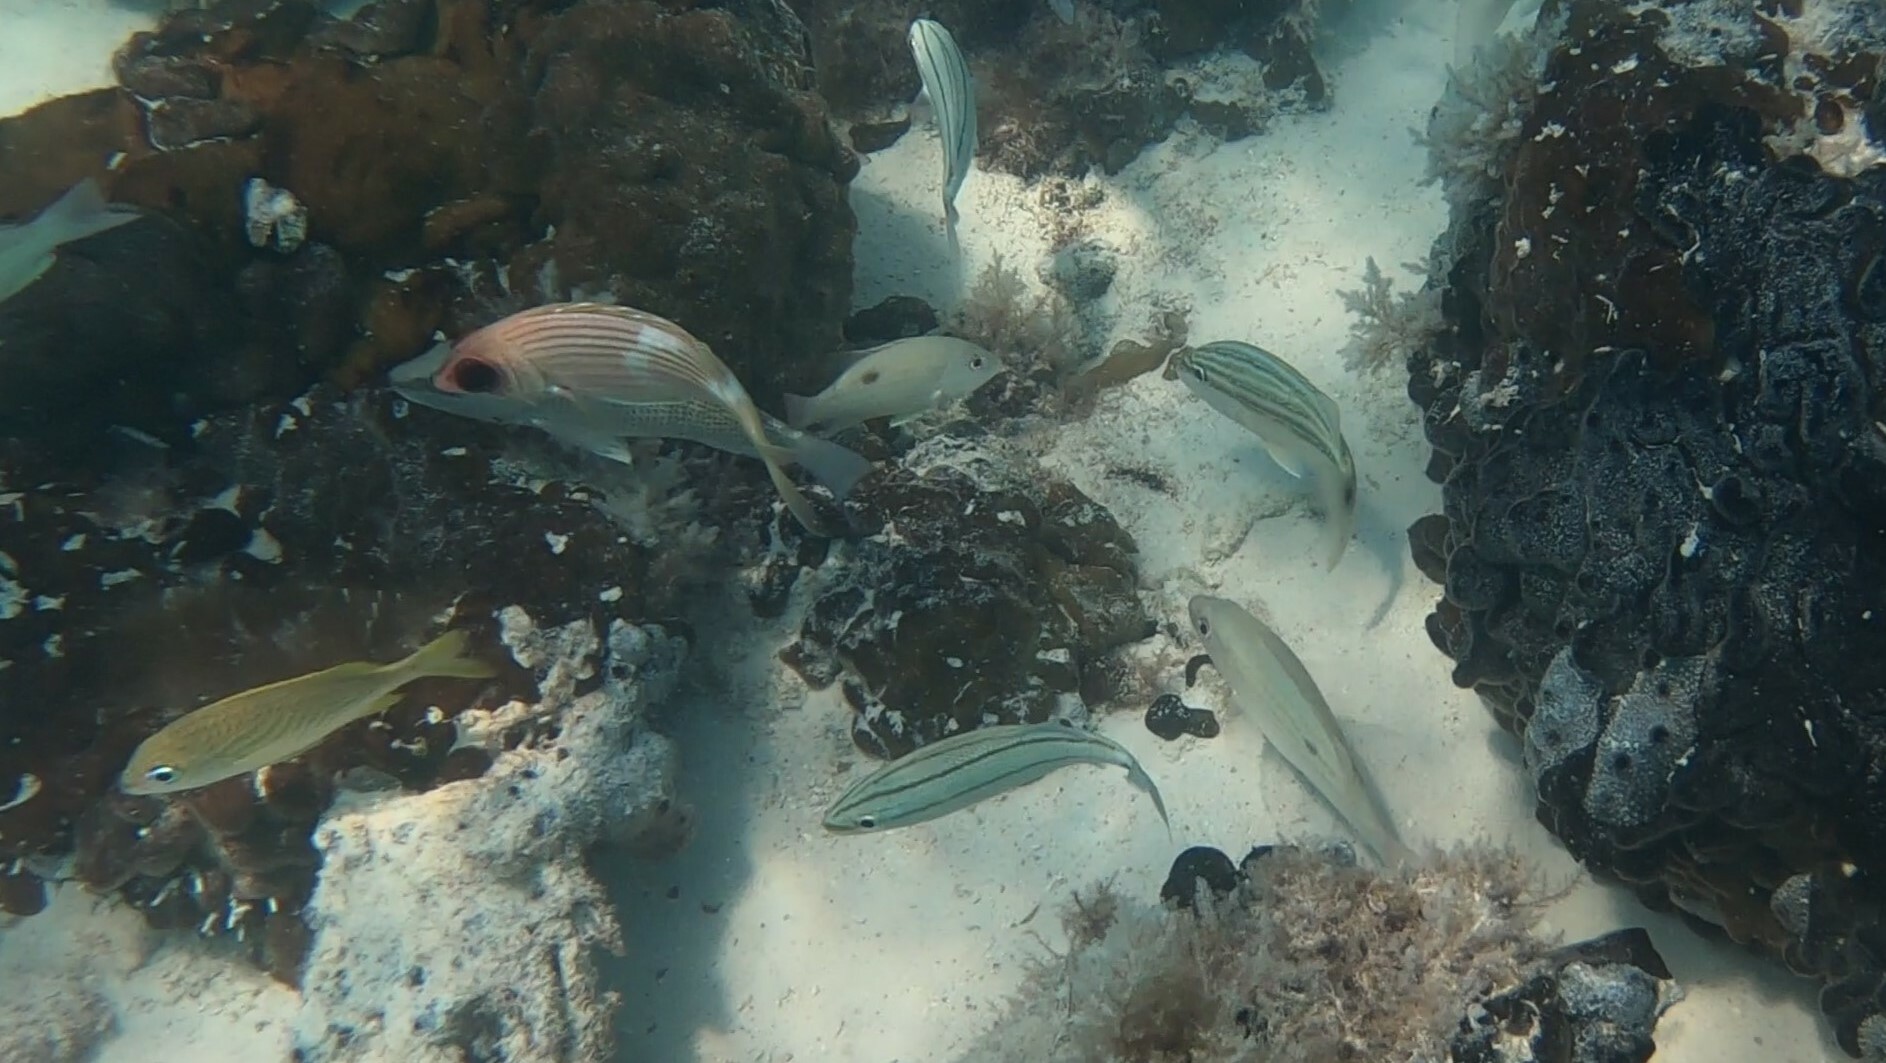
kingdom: Animalia
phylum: Chordata
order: Beryciformes
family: Holocentridae
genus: Holocentrus
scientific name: Holocentrus adscensionis
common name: Squirrelfish
